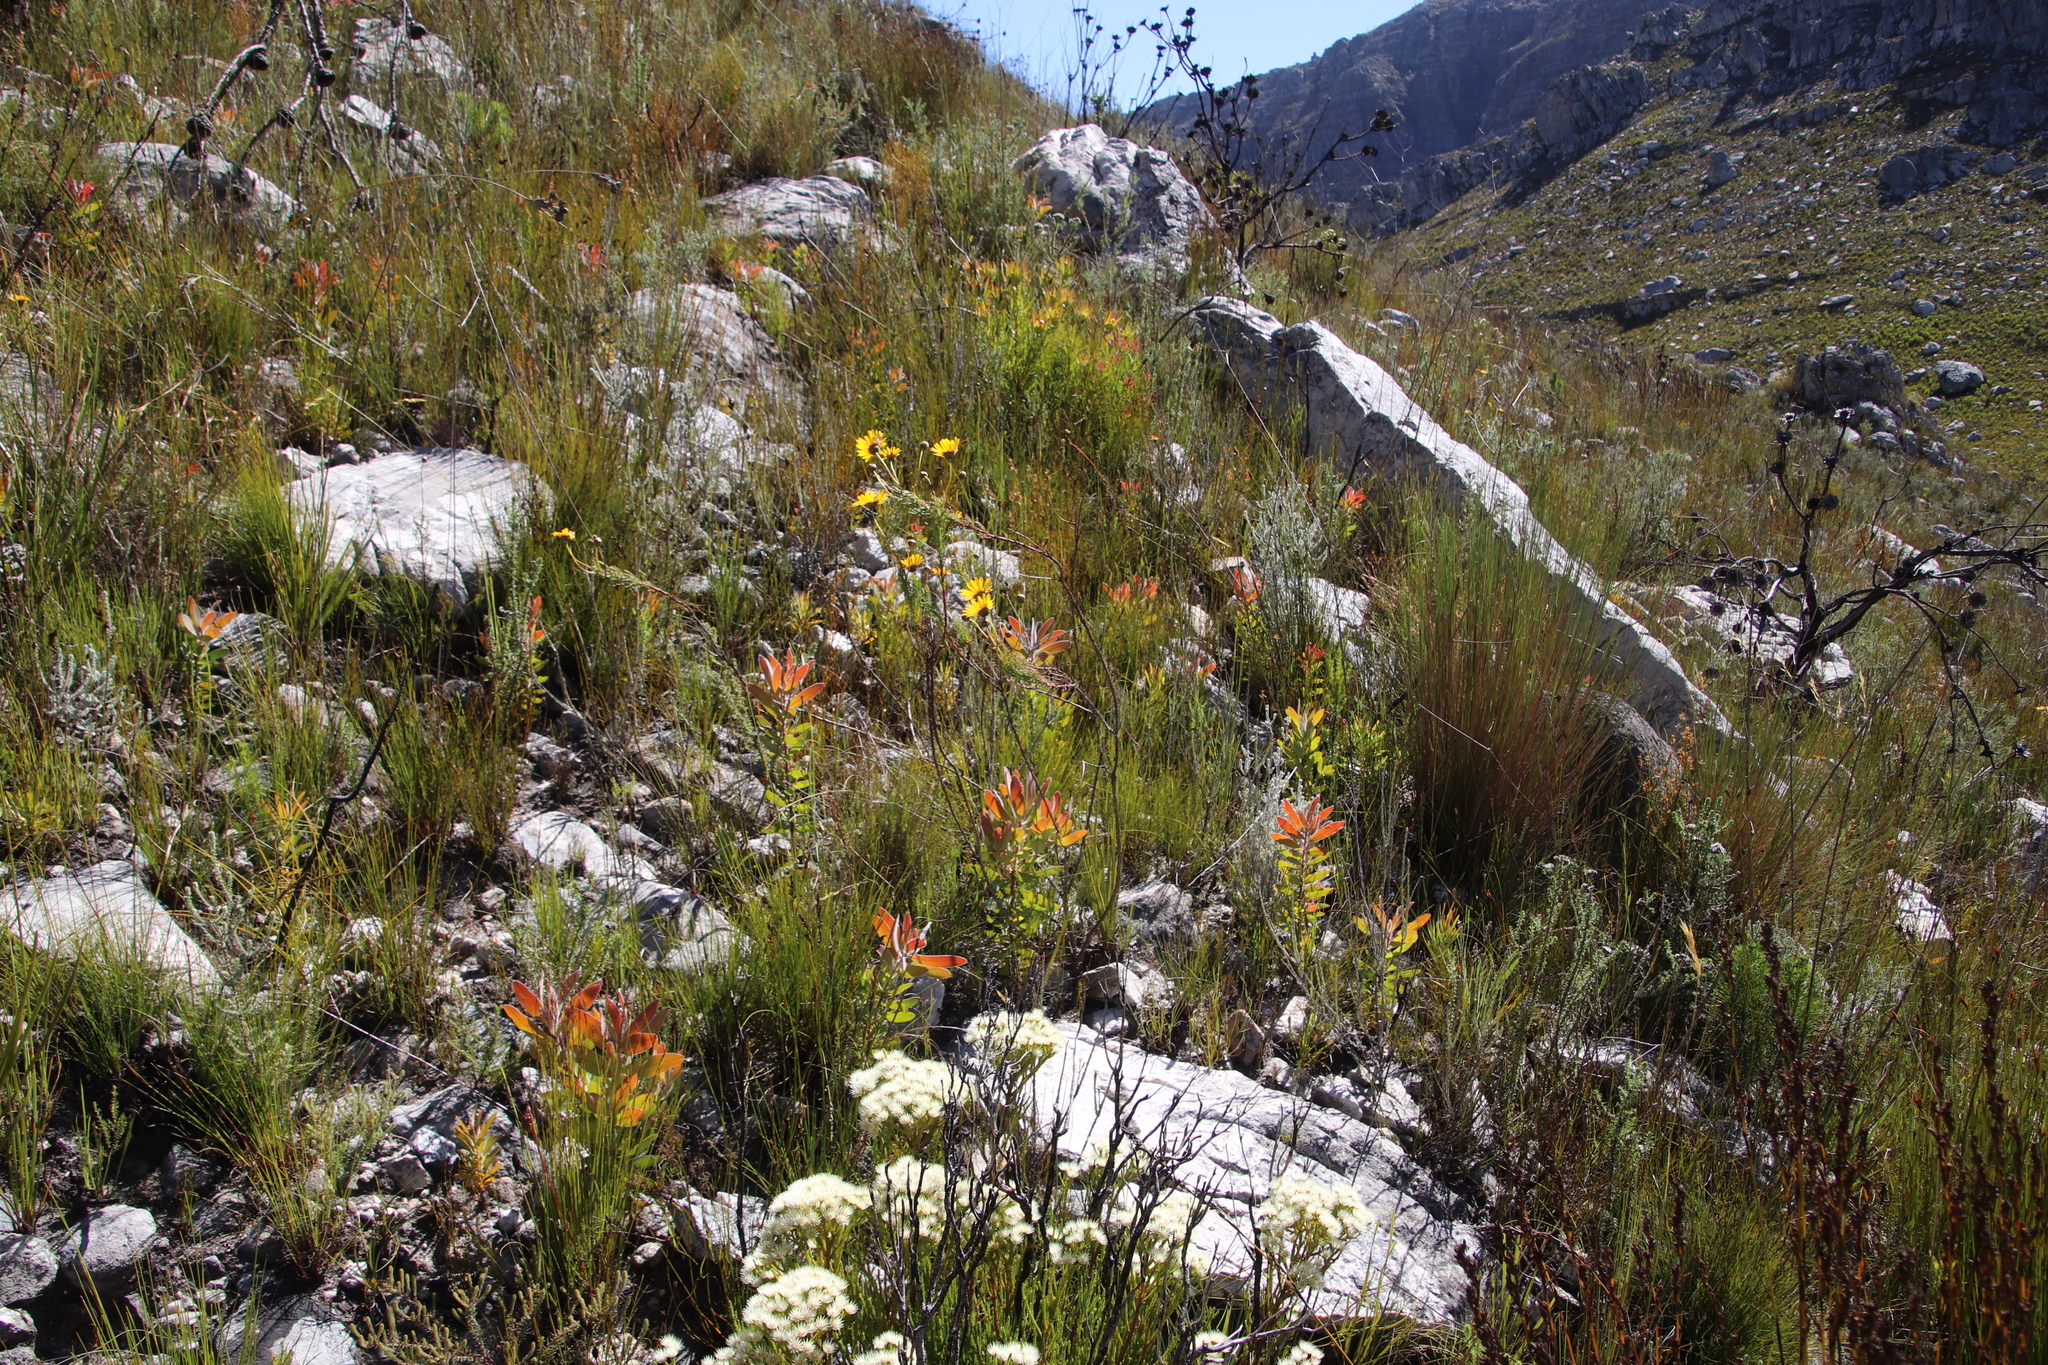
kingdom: Plantae
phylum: Tracheophyta
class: Magnoliopsida
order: Proteales
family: Proteaceae
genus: Protea
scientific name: Protea laurifolia
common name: Grey-leaf sugarbsh
